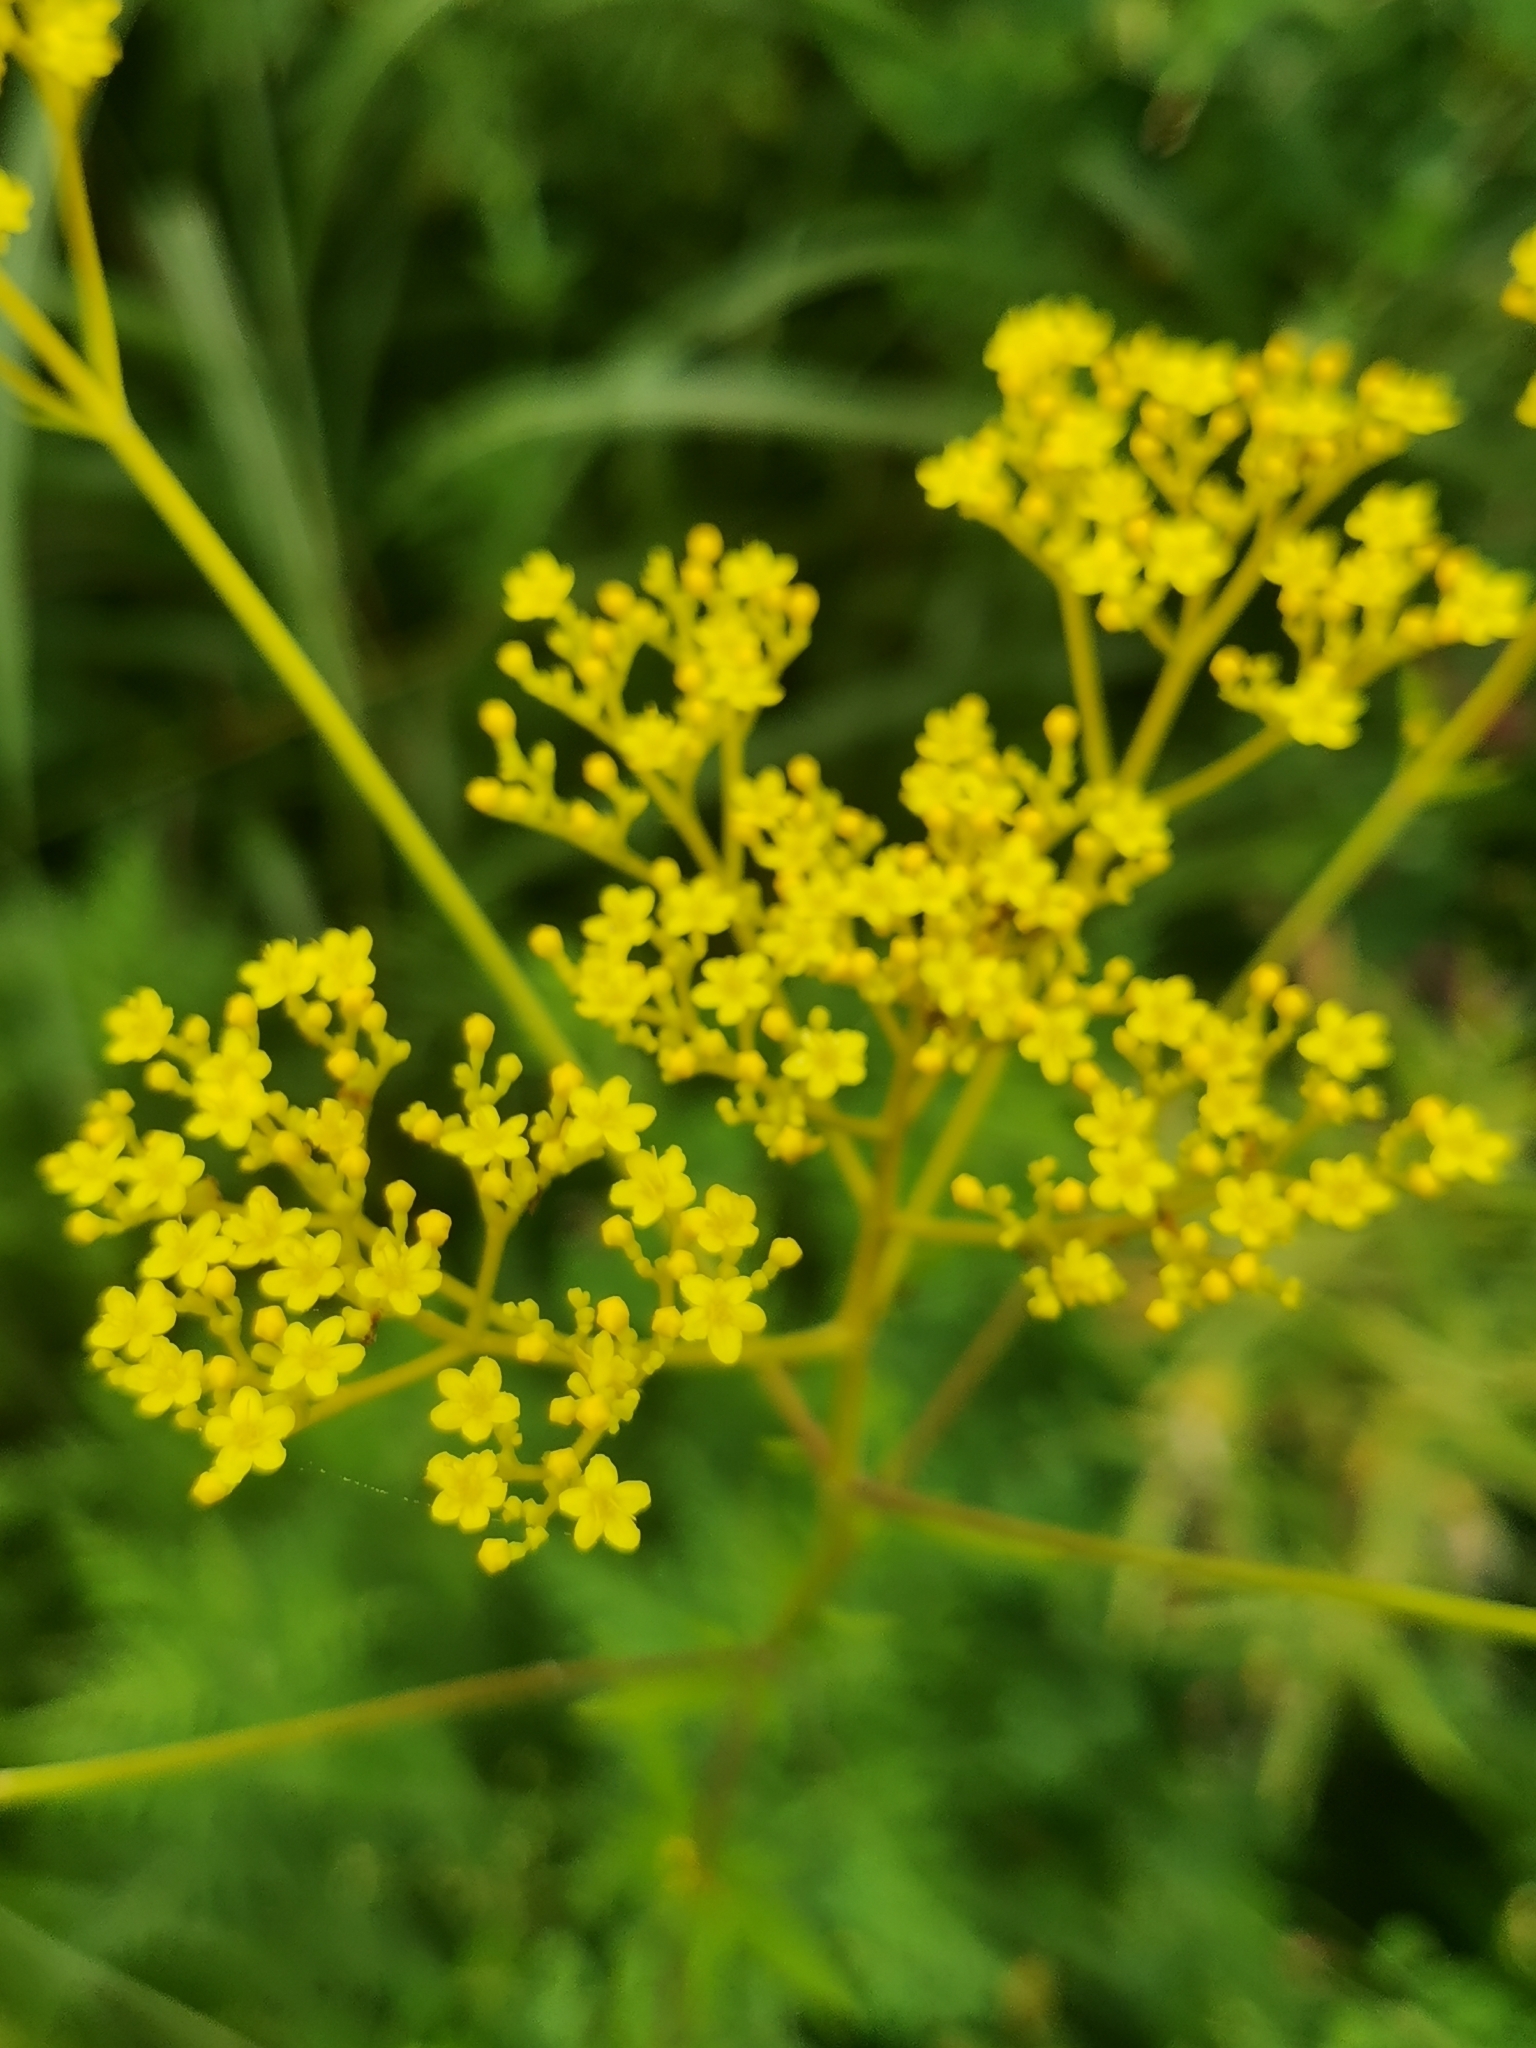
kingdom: Plantae
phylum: Tracheophyta
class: Magnoliopsida
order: Dipsacales
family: Caprifoliaceae
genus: Patrinia
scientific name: Patrinia scabiosifolia
